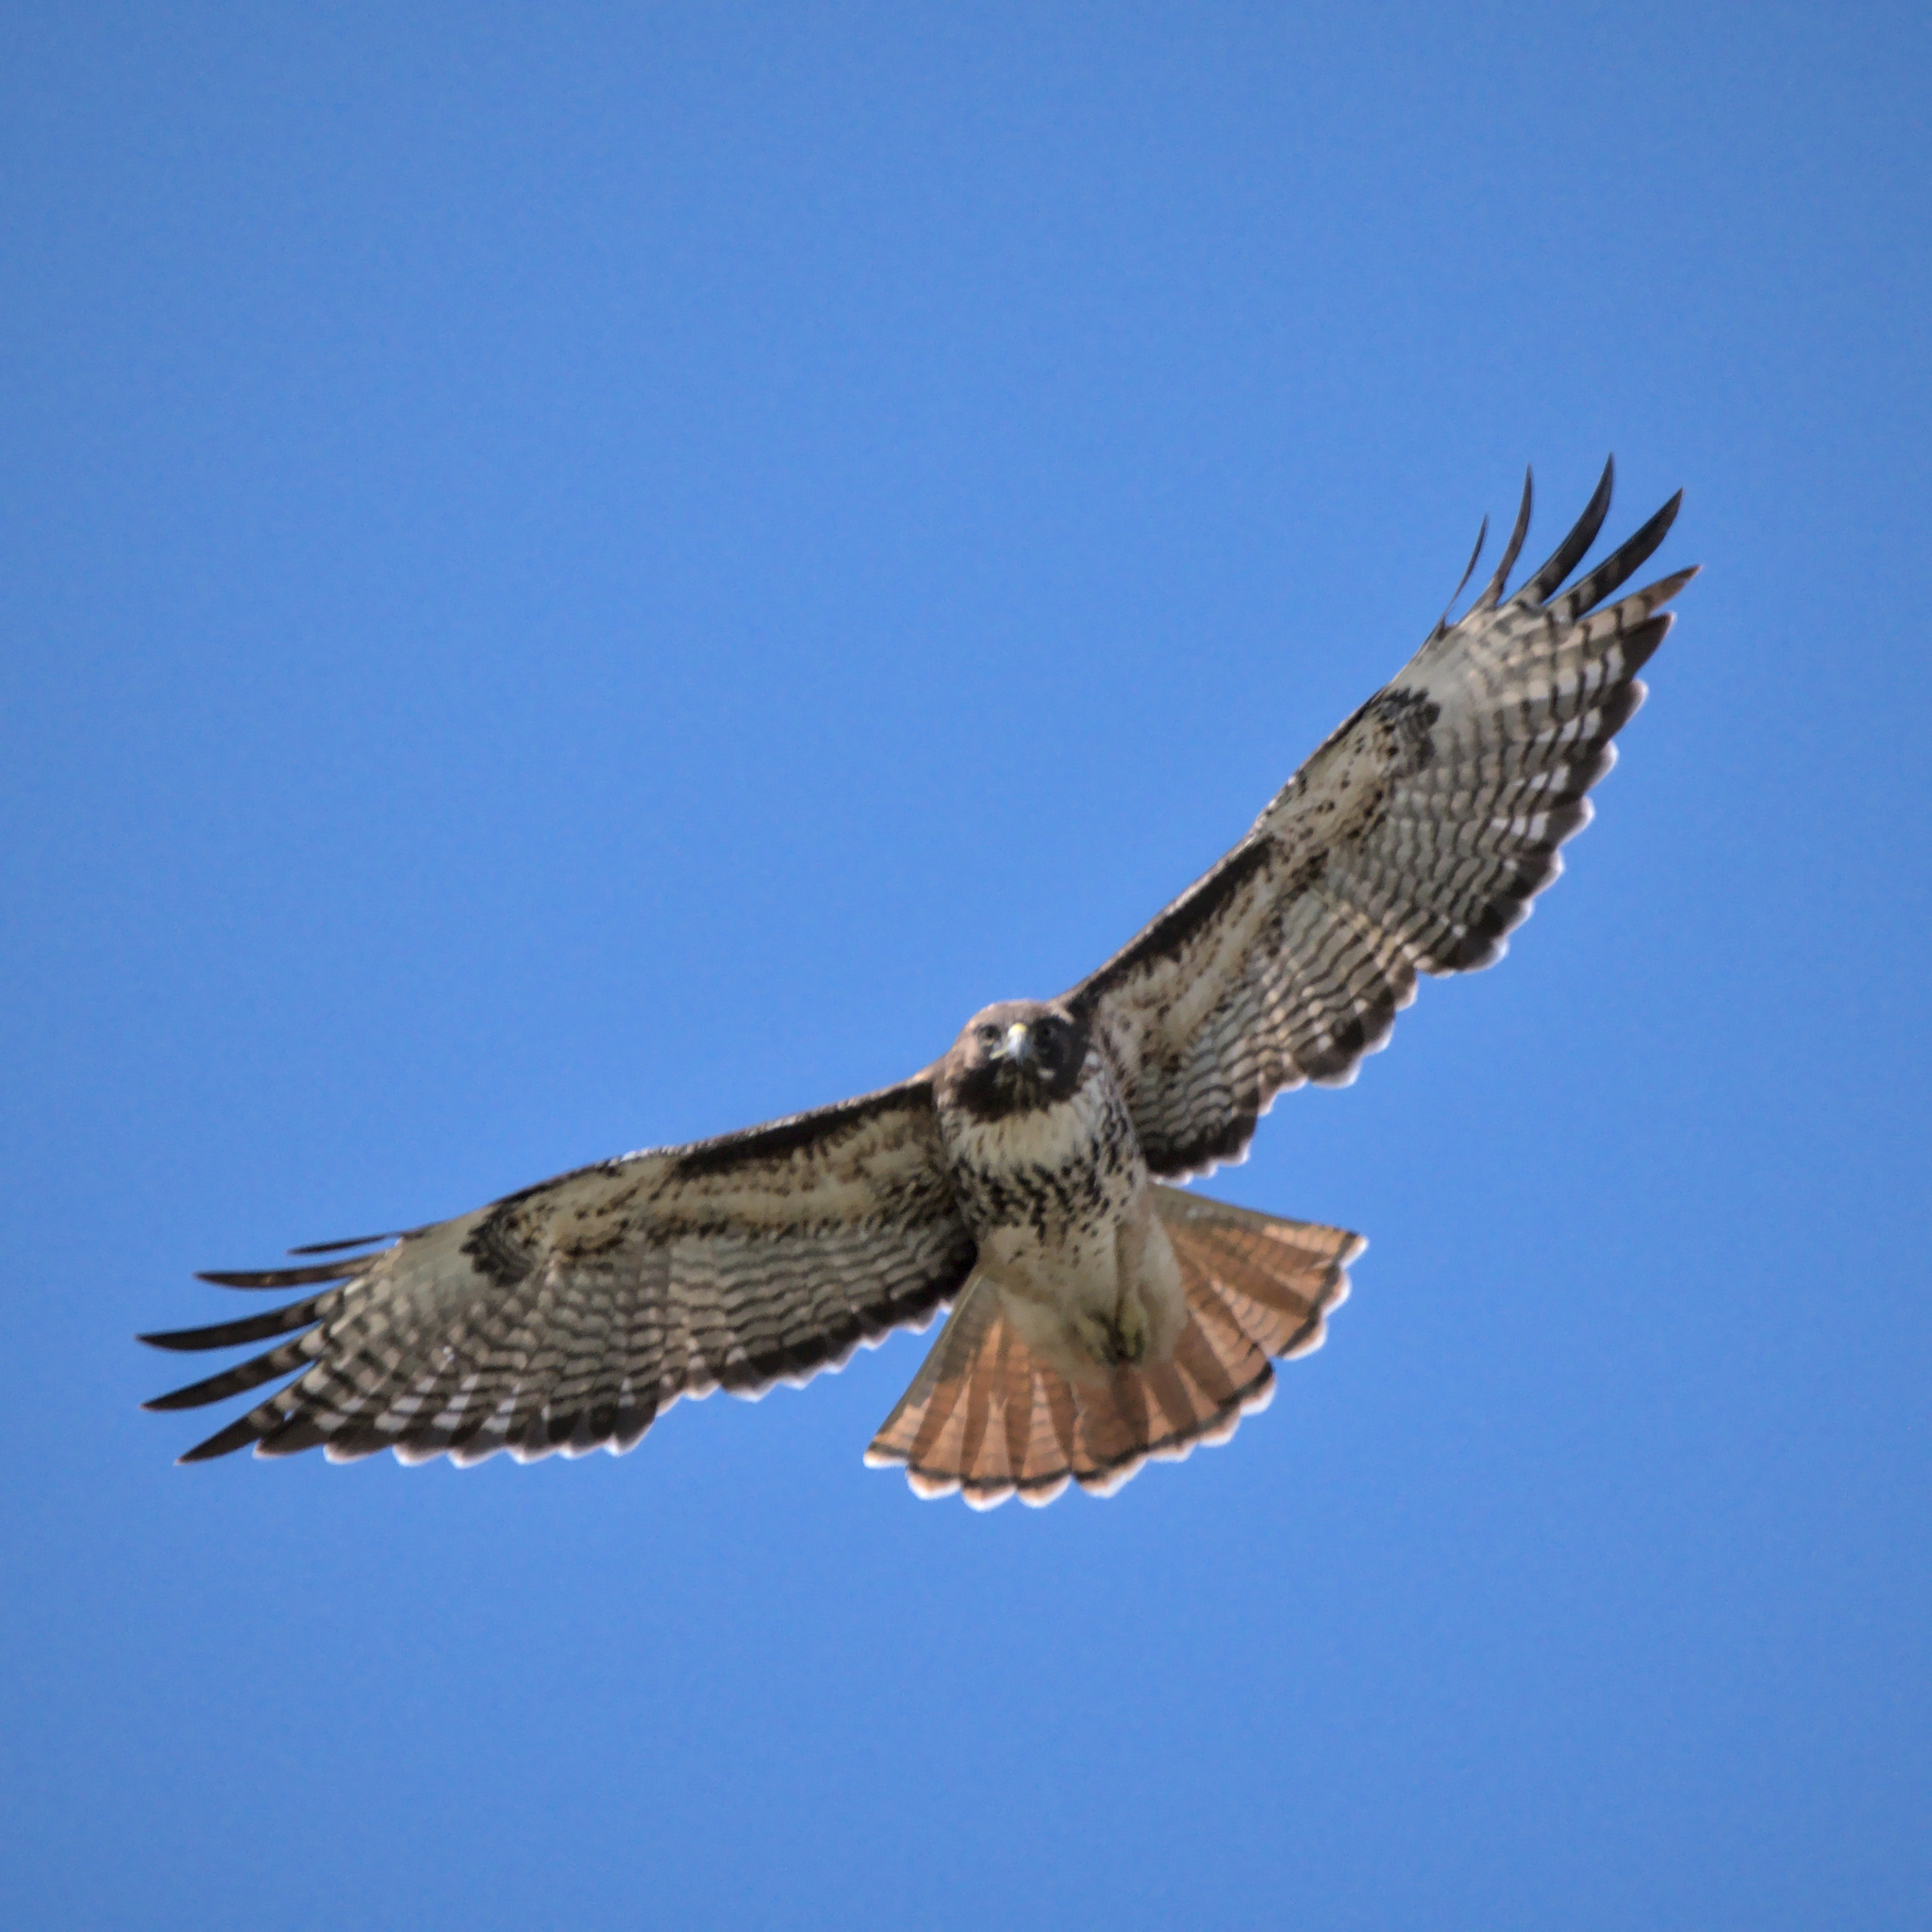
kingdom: Animalia
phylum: Chordata
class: Aves
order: Accipitriformes
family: Accipitridae
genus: Buteo
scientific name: Buteo jamaicensis
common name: Red-tailed hawk
